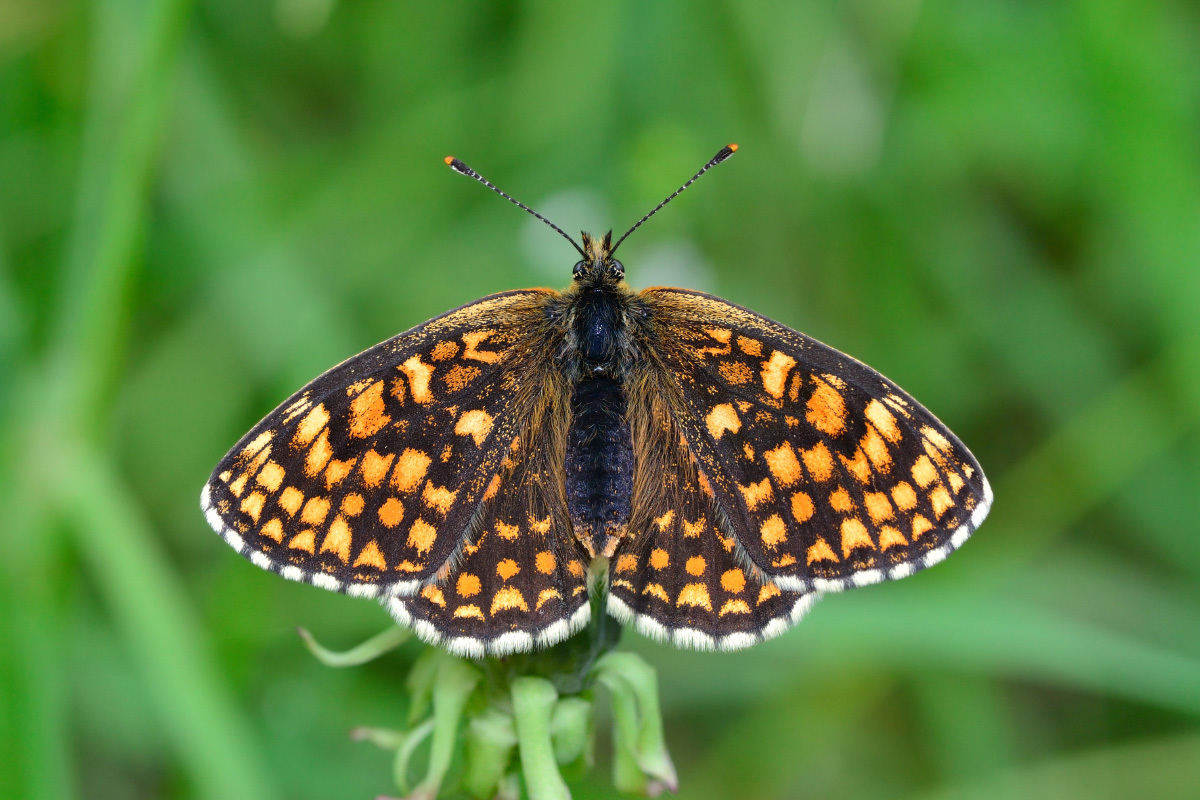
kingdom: Animalia
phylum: Arthropoda
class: Insecta
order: Lepidoptera
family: Nymphalidae
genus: Melitaea
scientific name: Melitaea athalia
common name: Heath fritillary
